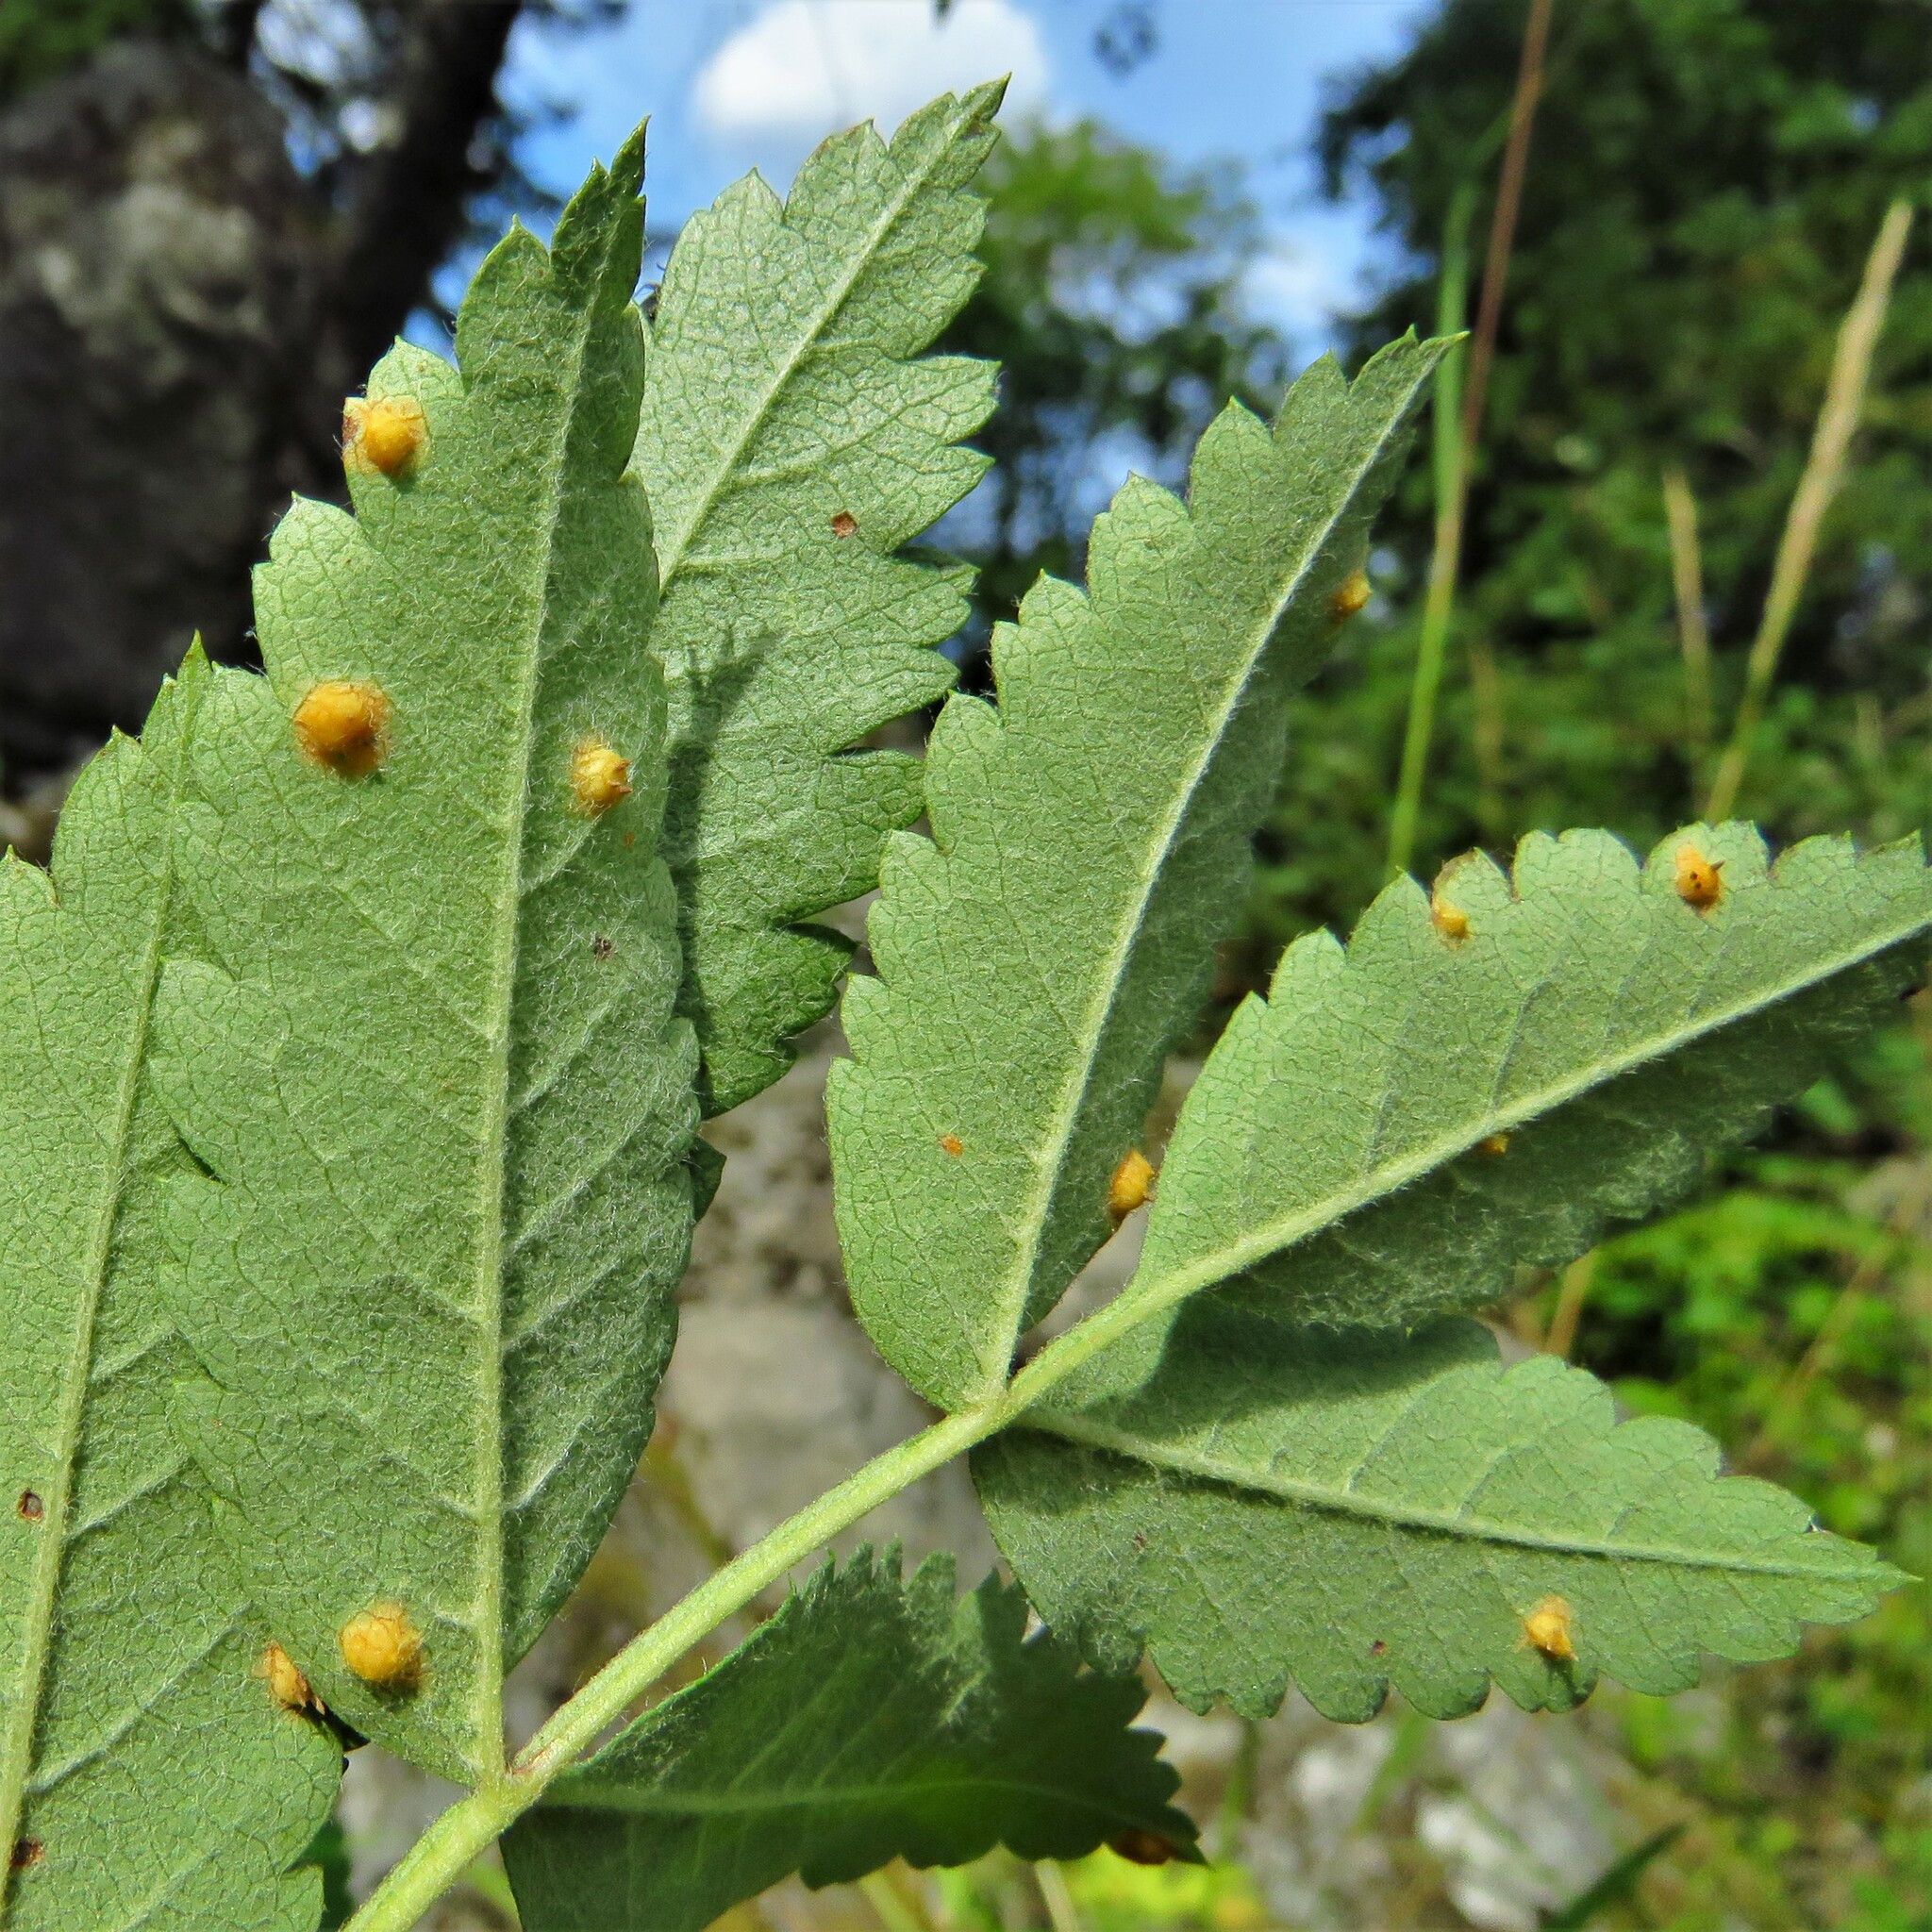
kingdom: Fungi
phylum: Basidiomycota
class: Pucciniomycetes
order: Pucciniales
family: Gymnosporangiaceae
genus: Gymnosporangium
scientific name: Gymnosporangium cornutum
